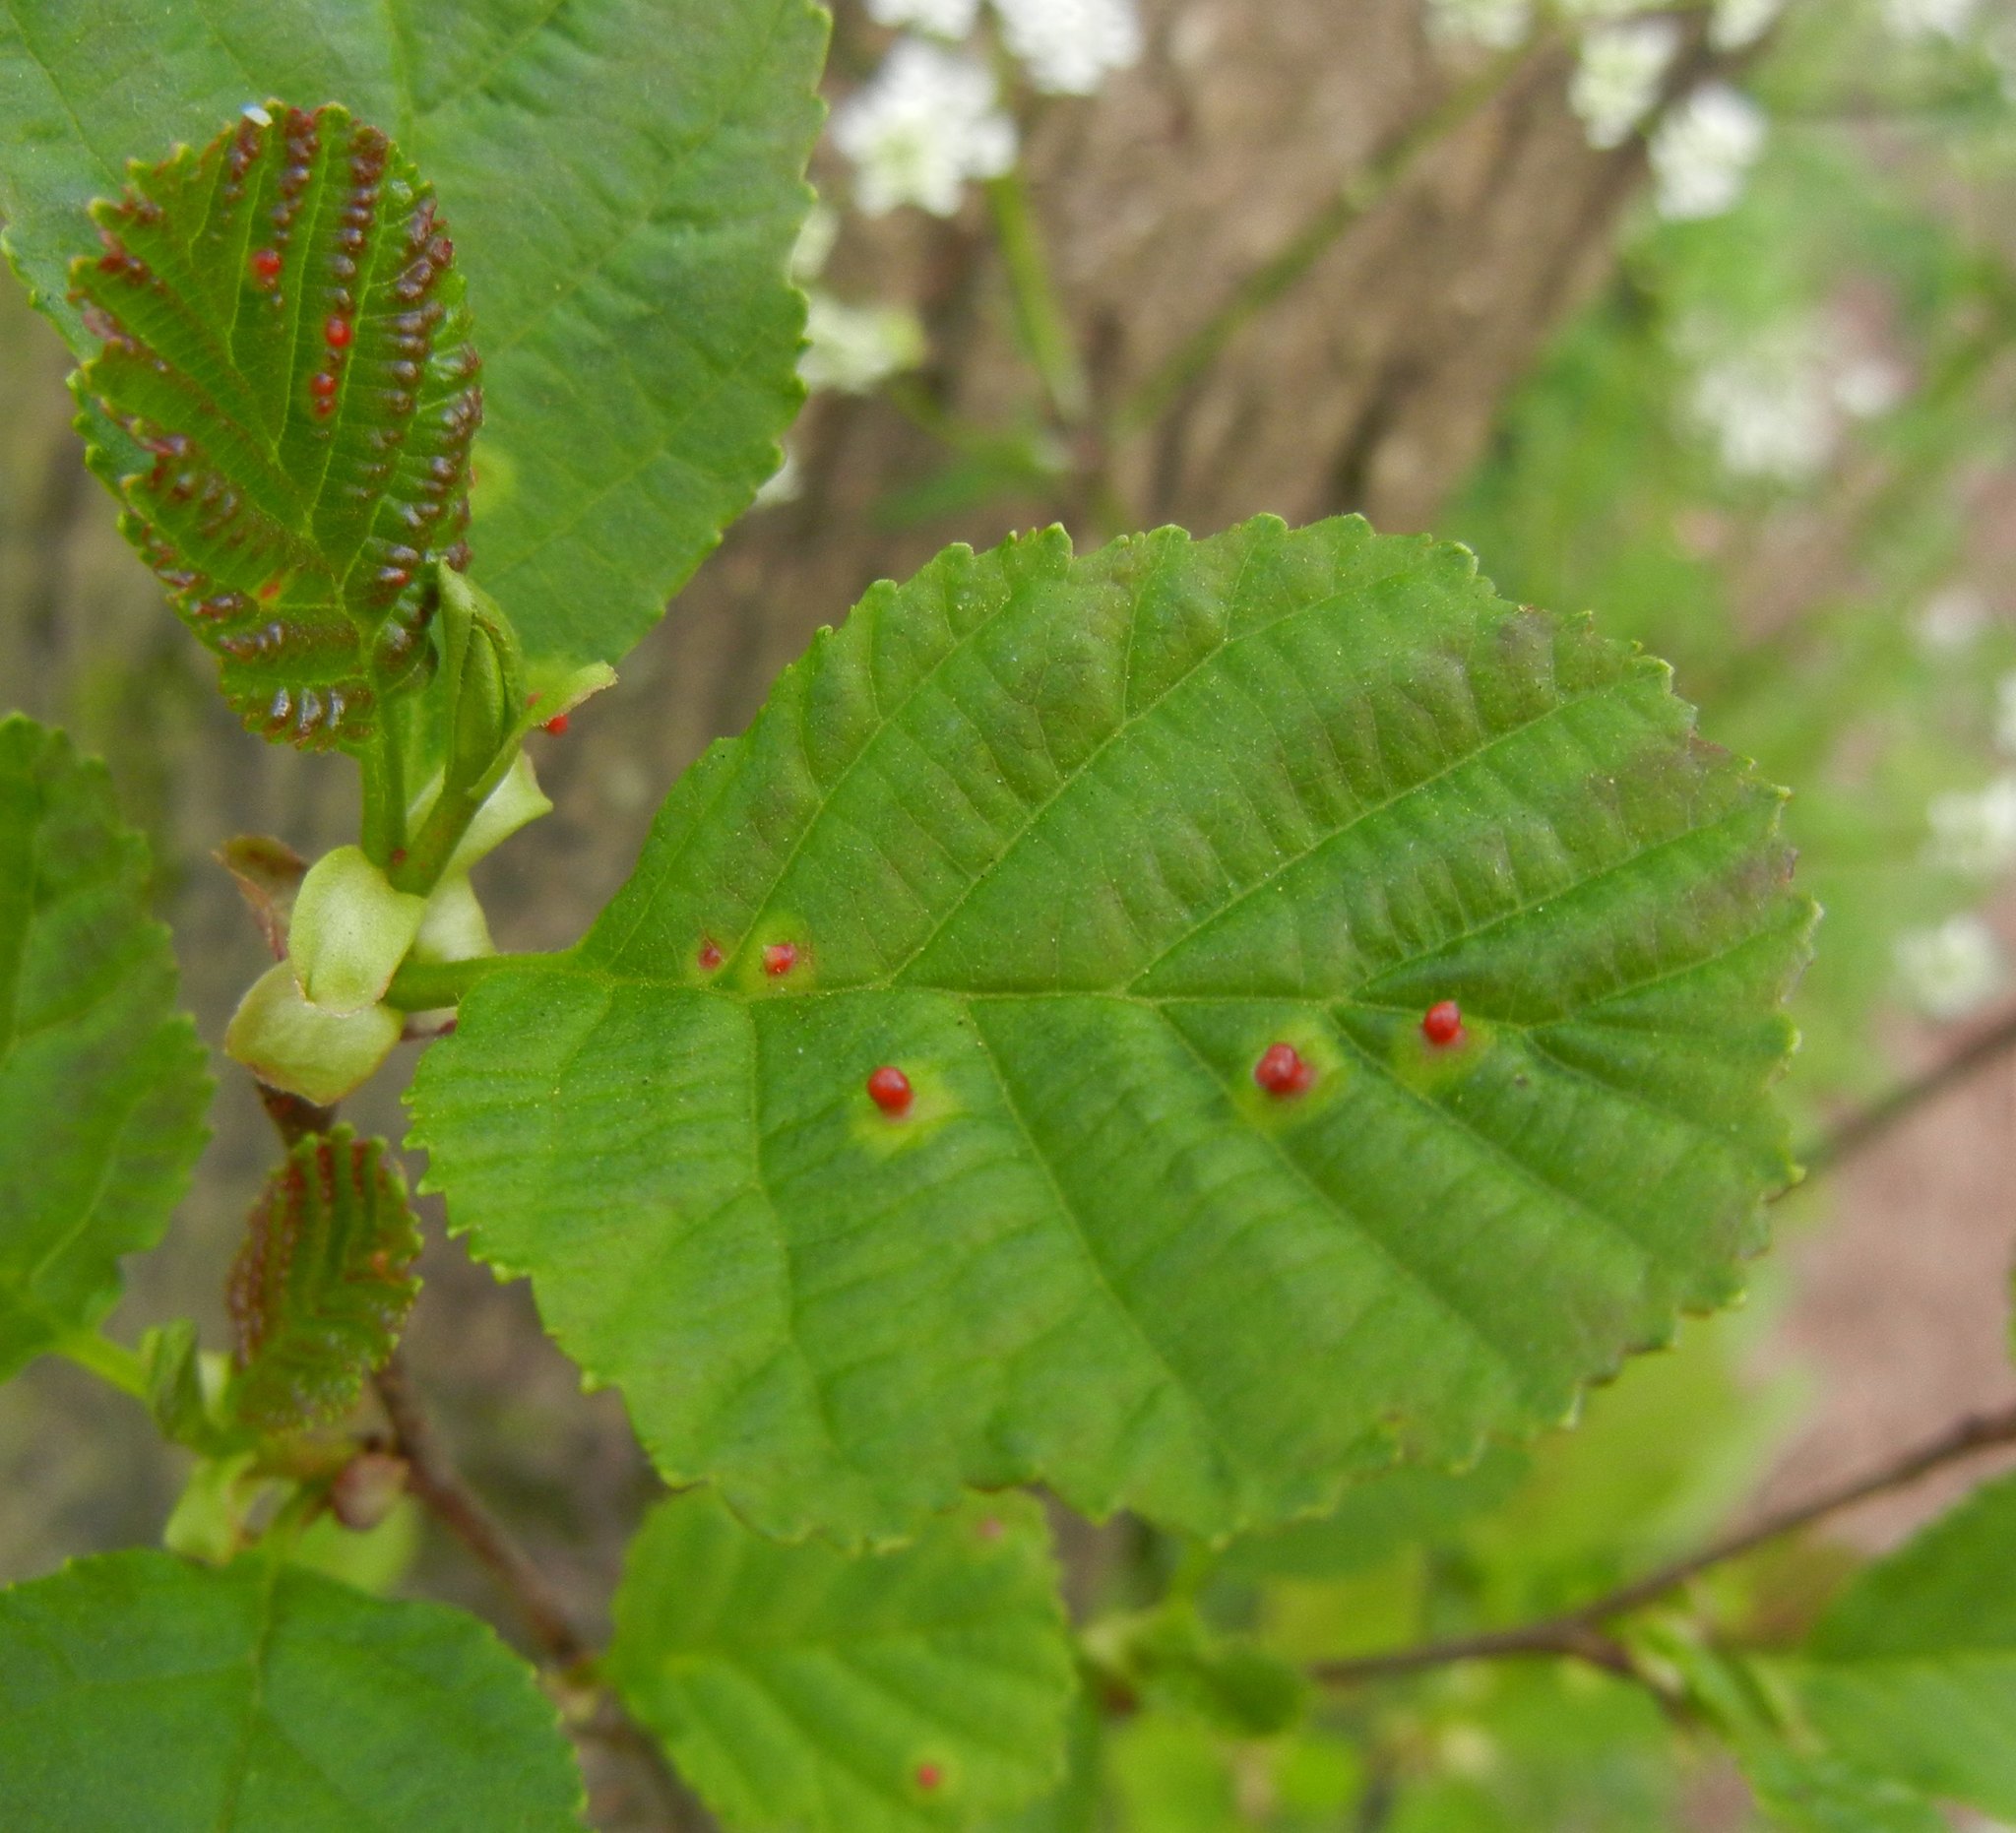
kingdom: Animalia
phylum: Arthropoda
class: Arachnida
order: Trombidiformes
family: Eriophyidae
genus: Eriophyes
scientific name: Eriophyes laevis
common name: Alder leaf gall mite
